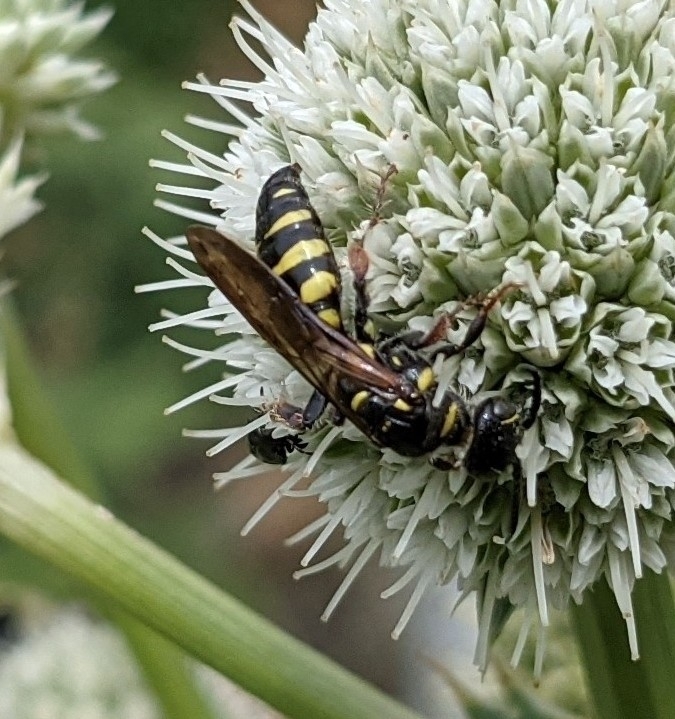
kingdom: Animalia
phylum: Arthropoda
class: Insecta
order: Hymenoptera
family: Tiphiidae
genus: Myzinum
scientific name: Myzinum maculatum
